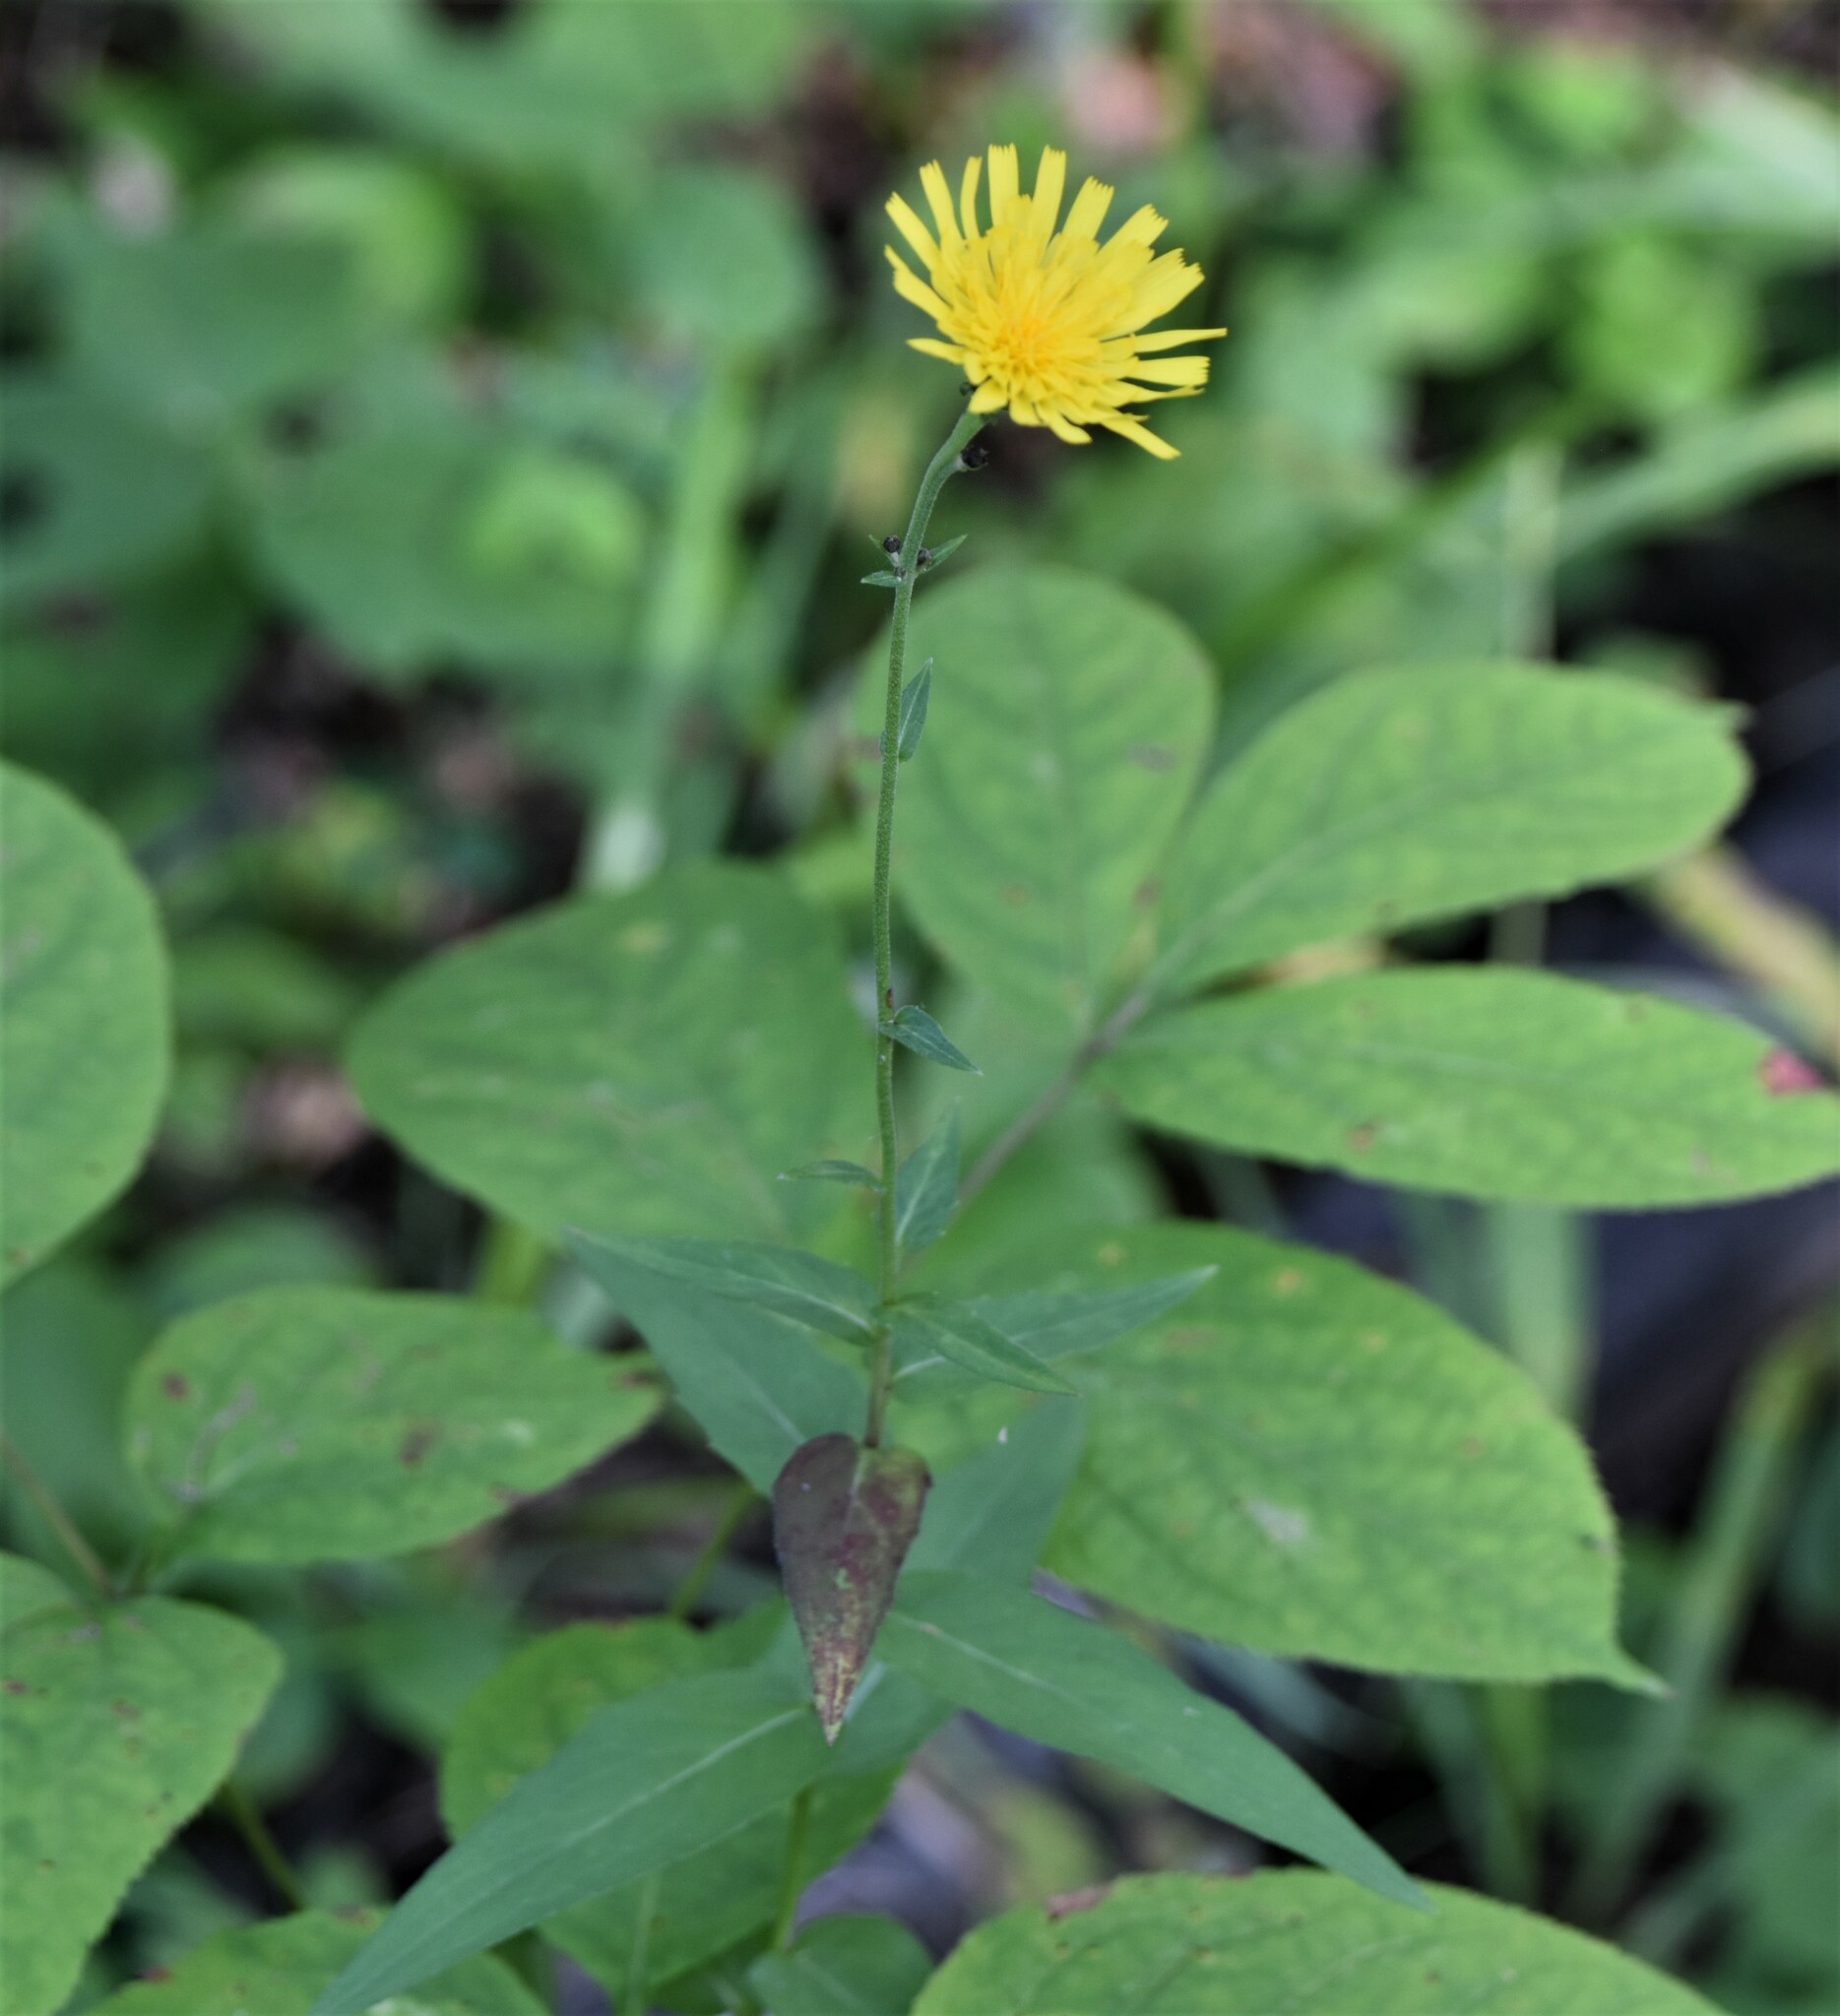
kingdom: Plantae
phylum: Tracheophyta
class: Magnoliopsida
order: Asterales
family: Asteraceae
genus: Hieracium
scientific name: Hieracium umbellatum
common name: Northern hawkweed
